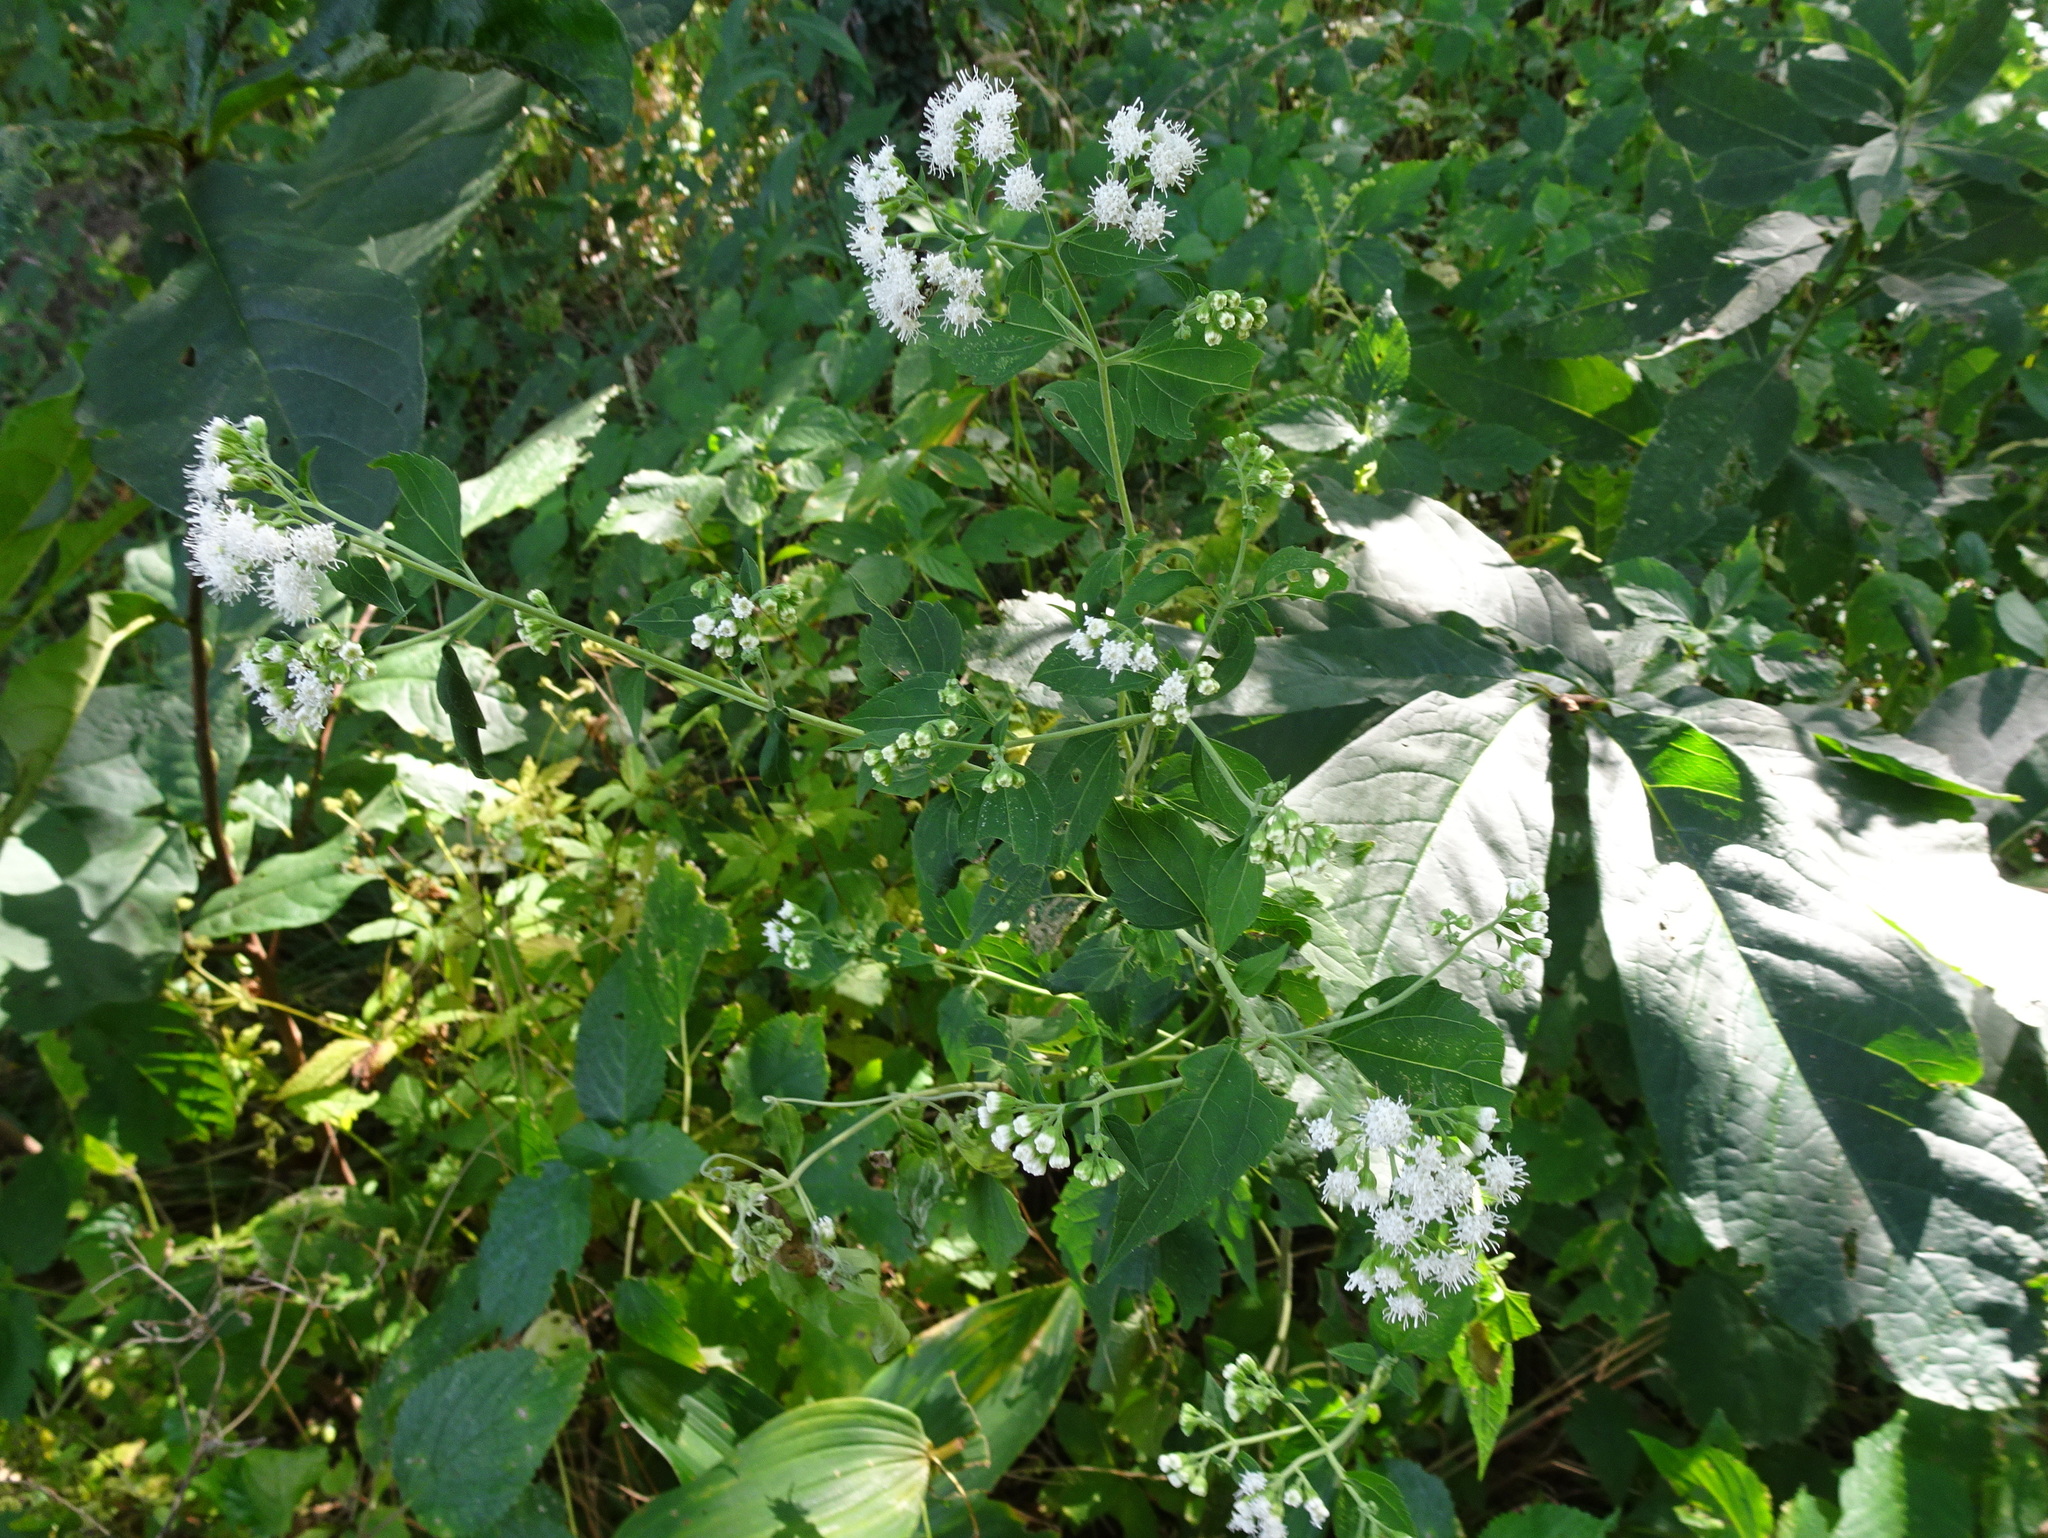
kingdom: Plantae
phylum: Tracheophyta
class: Magnoliopsida
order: Asterales
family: Asteraceae
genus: Ageratina
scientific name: Ageratina altissima
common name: White snakeroot
